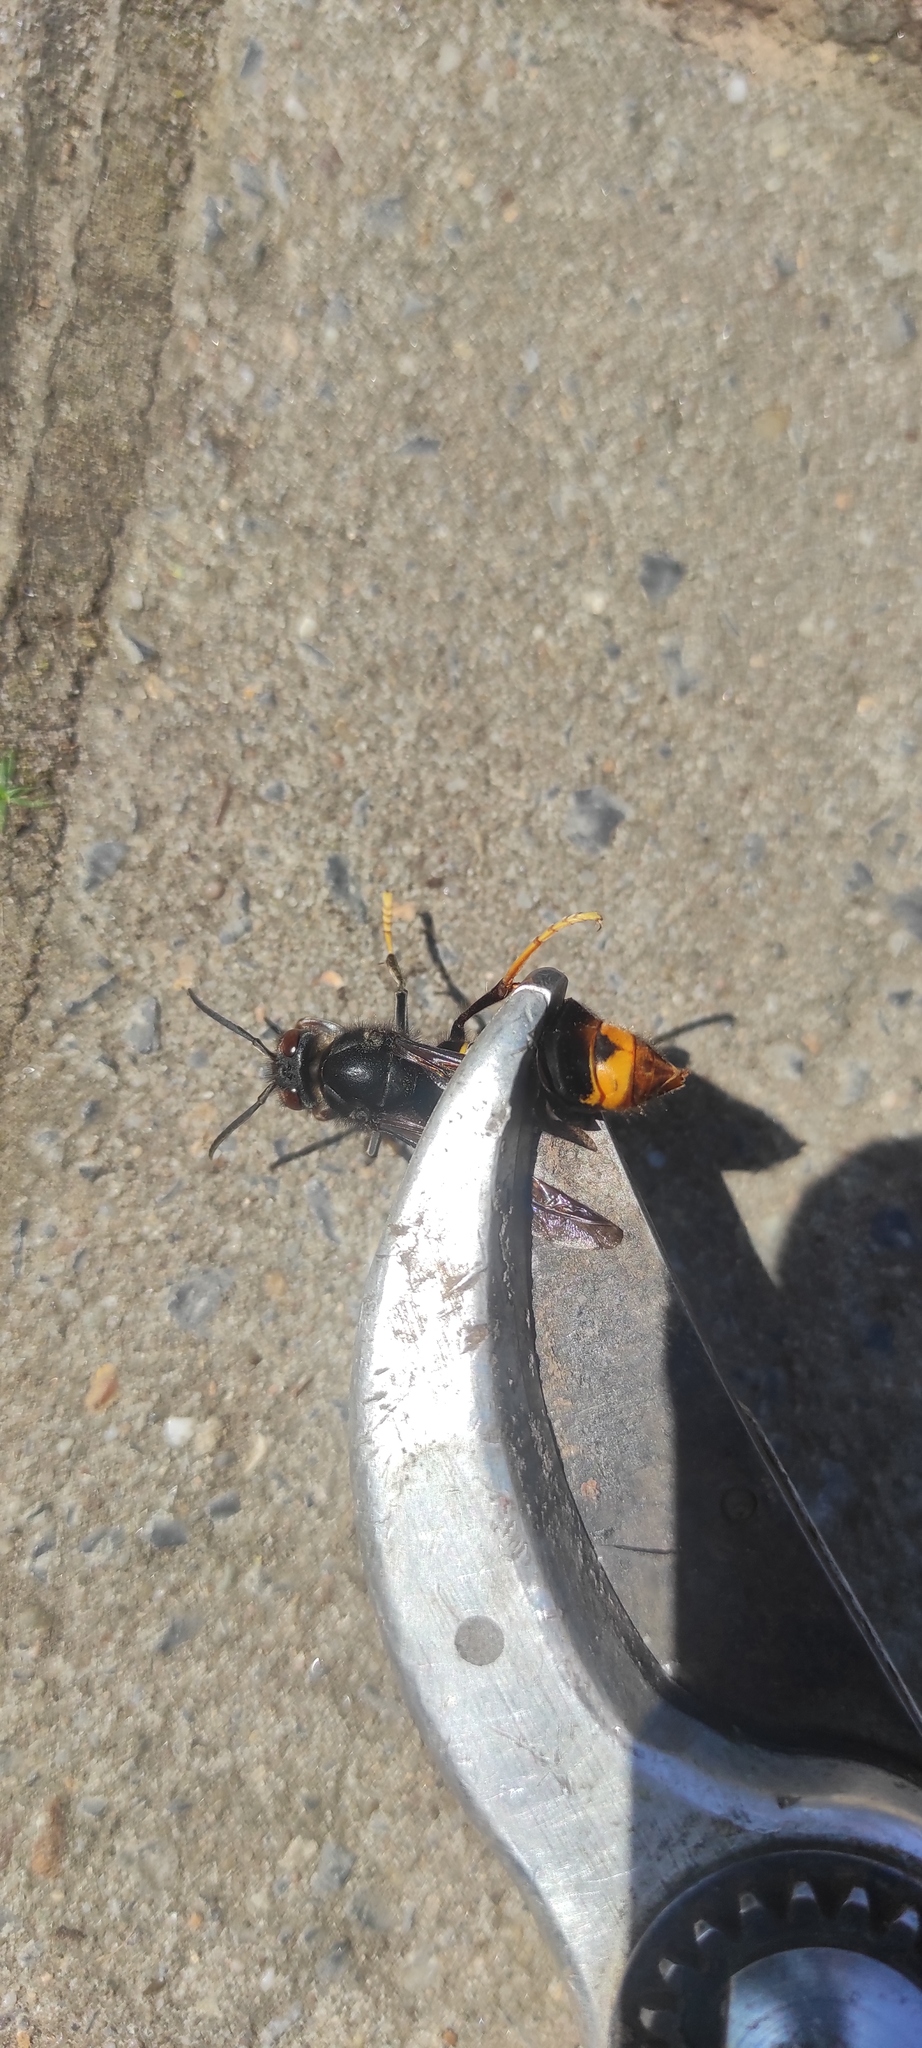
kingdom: Animalia
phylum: Arthropoda
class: Insecta
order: Hymenoptera
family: Vespidae
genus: Vespa
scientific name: Vespa velutina
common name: Asian hornet
